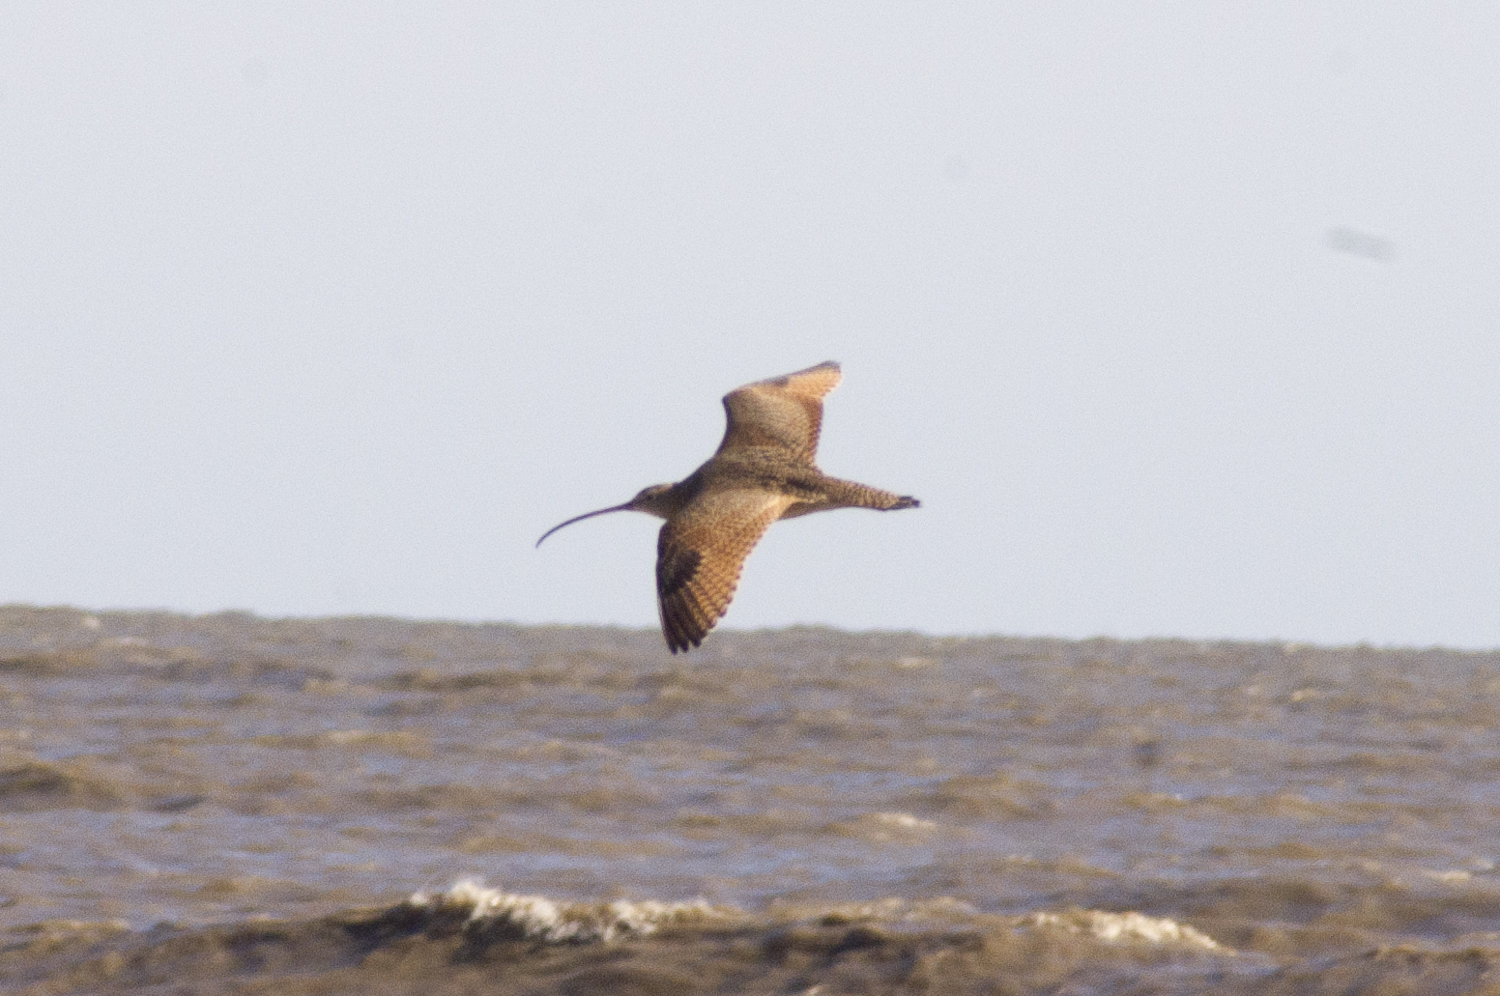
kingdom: Animalia
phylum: Chordata
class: Aves
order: Charadriiformes
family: Scolopacidae
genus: Numenius
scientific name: Numenius americanus
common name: Long-billed curlew
